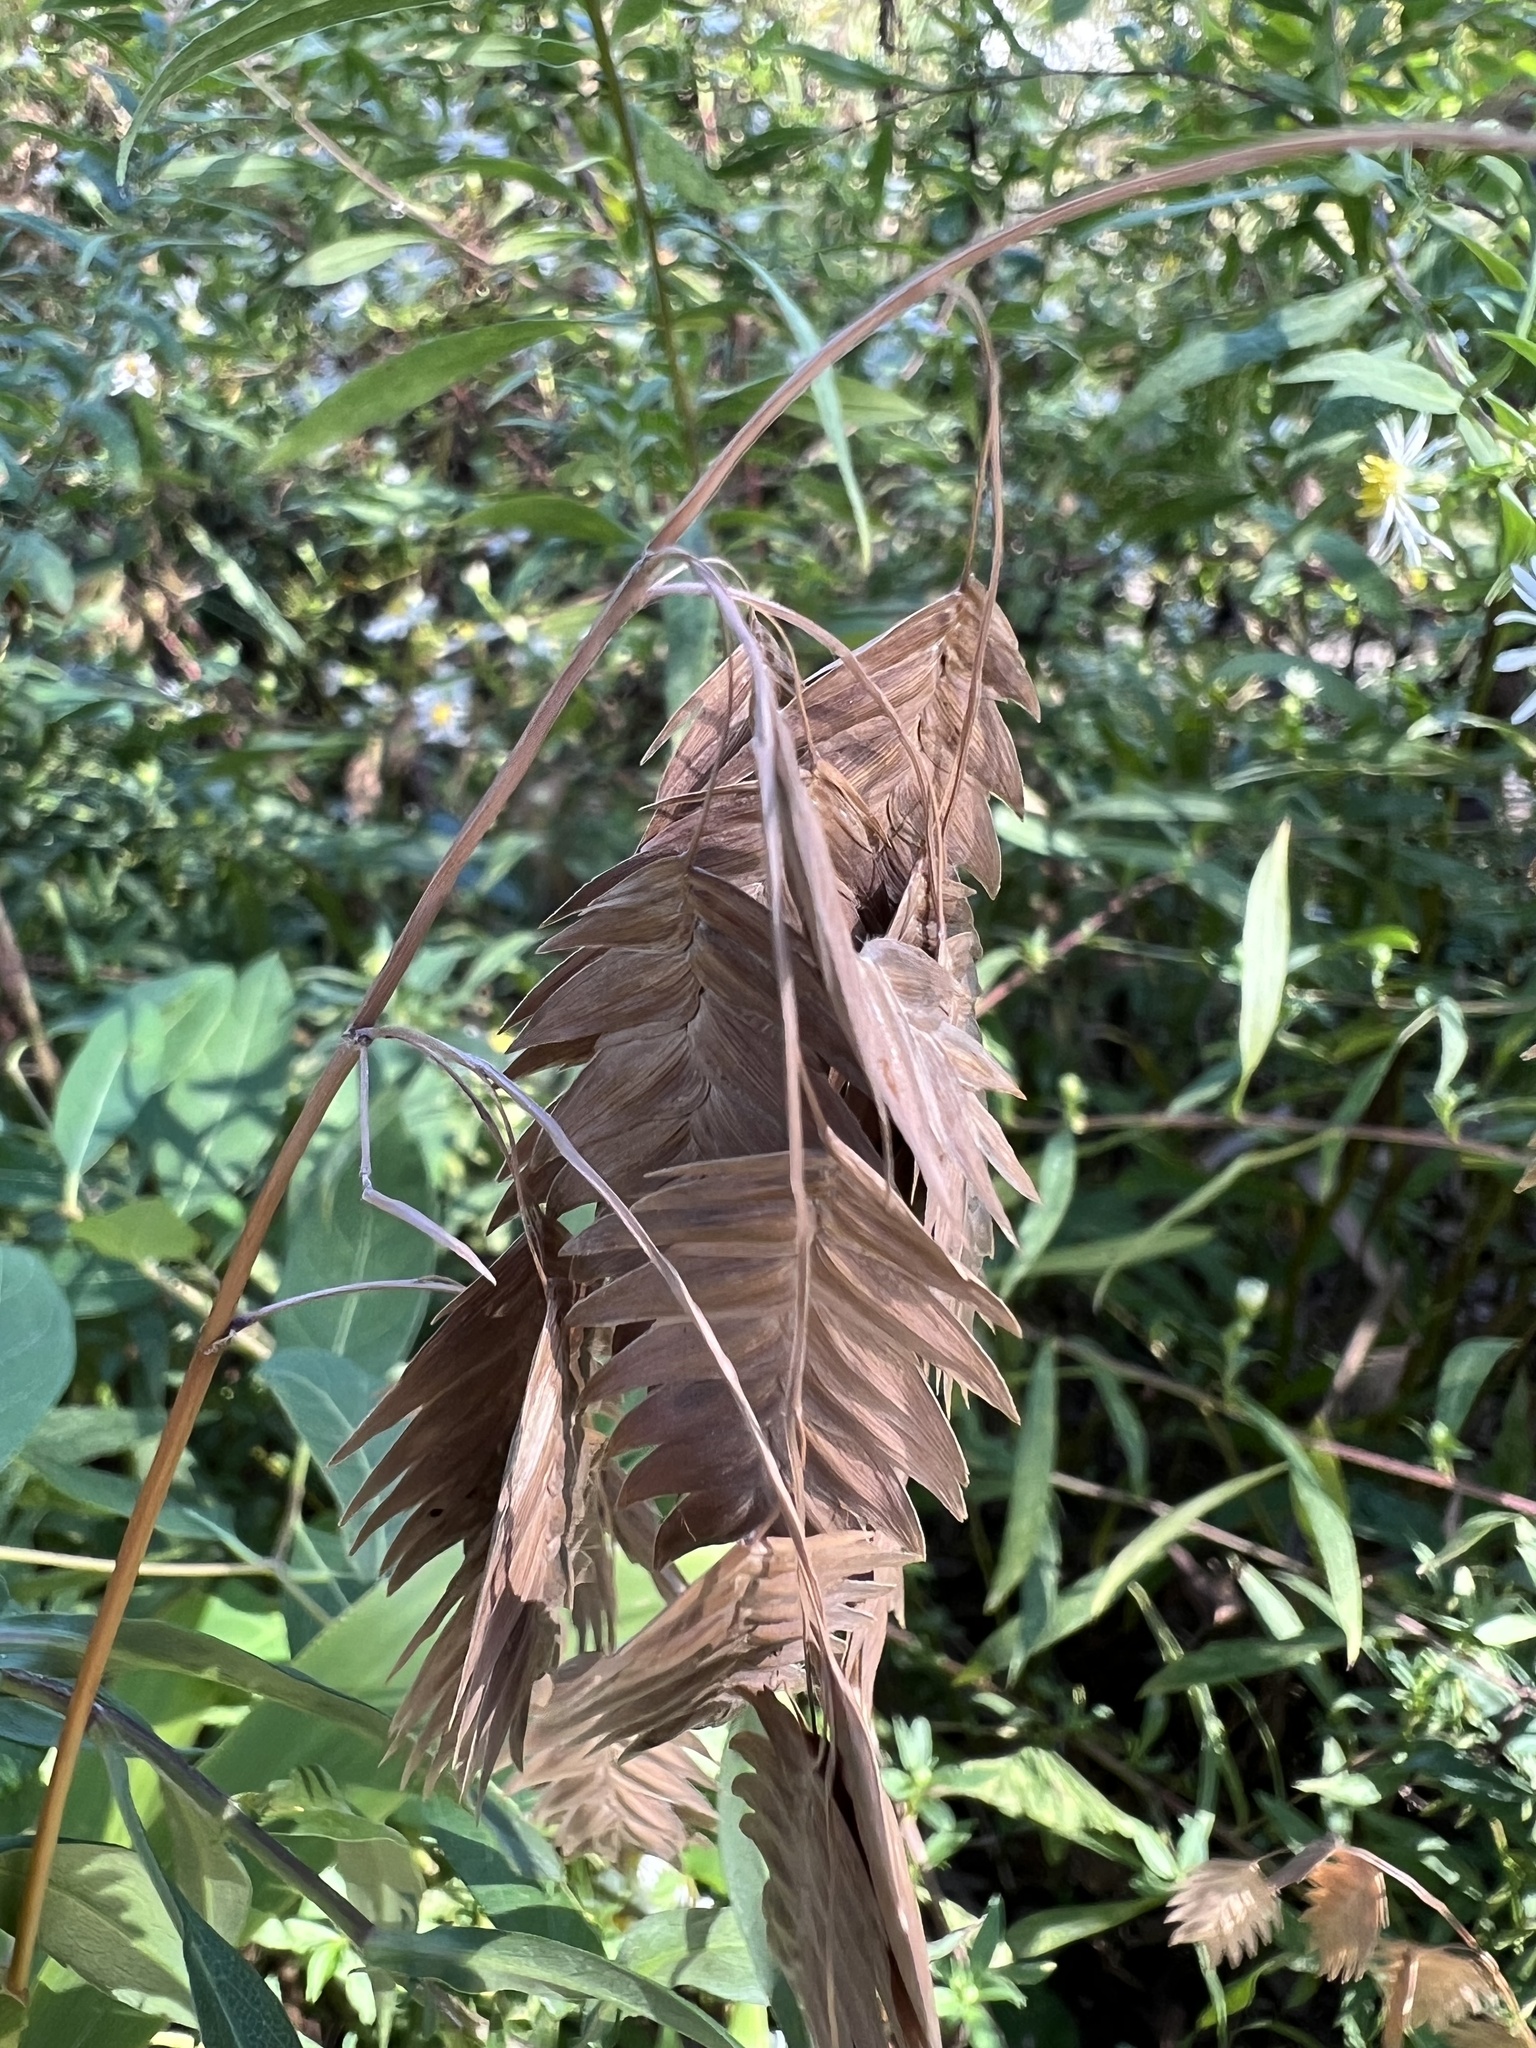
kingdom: Plantae
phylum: Tracheophyta
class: Liliopsida
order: Poales
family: Poaceae
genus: Chasmanthium
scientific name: Chasmanthium latifolium
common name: Broad-leaved chasmanthium
